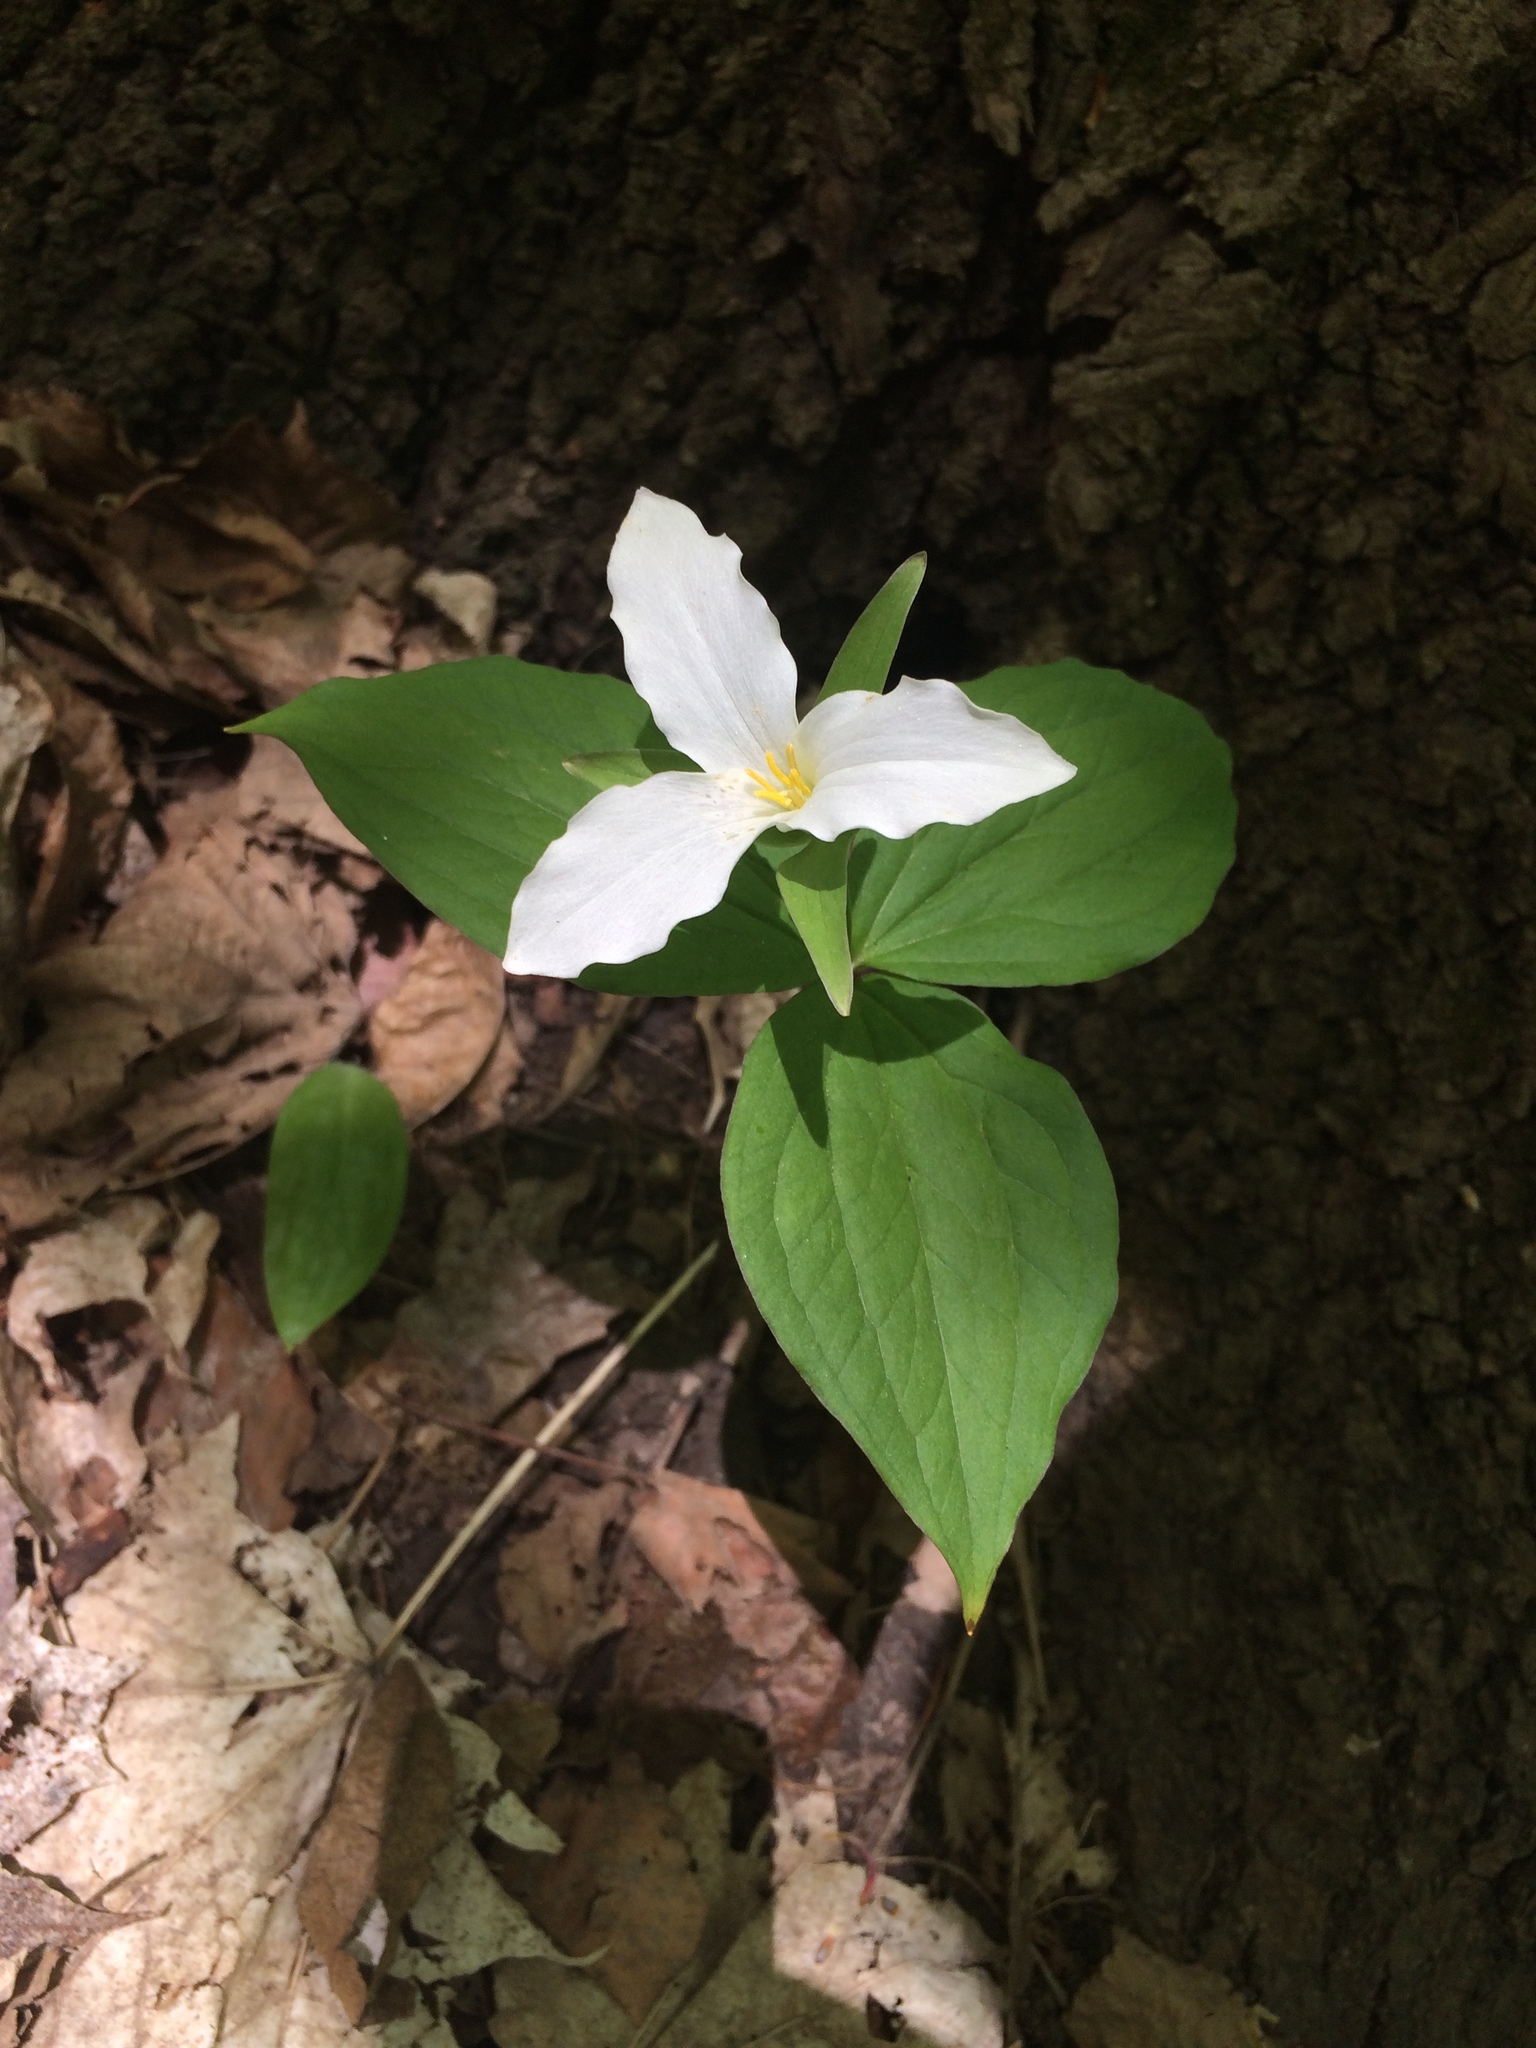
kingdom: Plantae
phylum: Tracheophyta
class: Liliopsida
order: Liliales
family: Melanthiaceae
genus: Trillium
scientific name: Trillium grandiflorum
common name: Great white trillium
